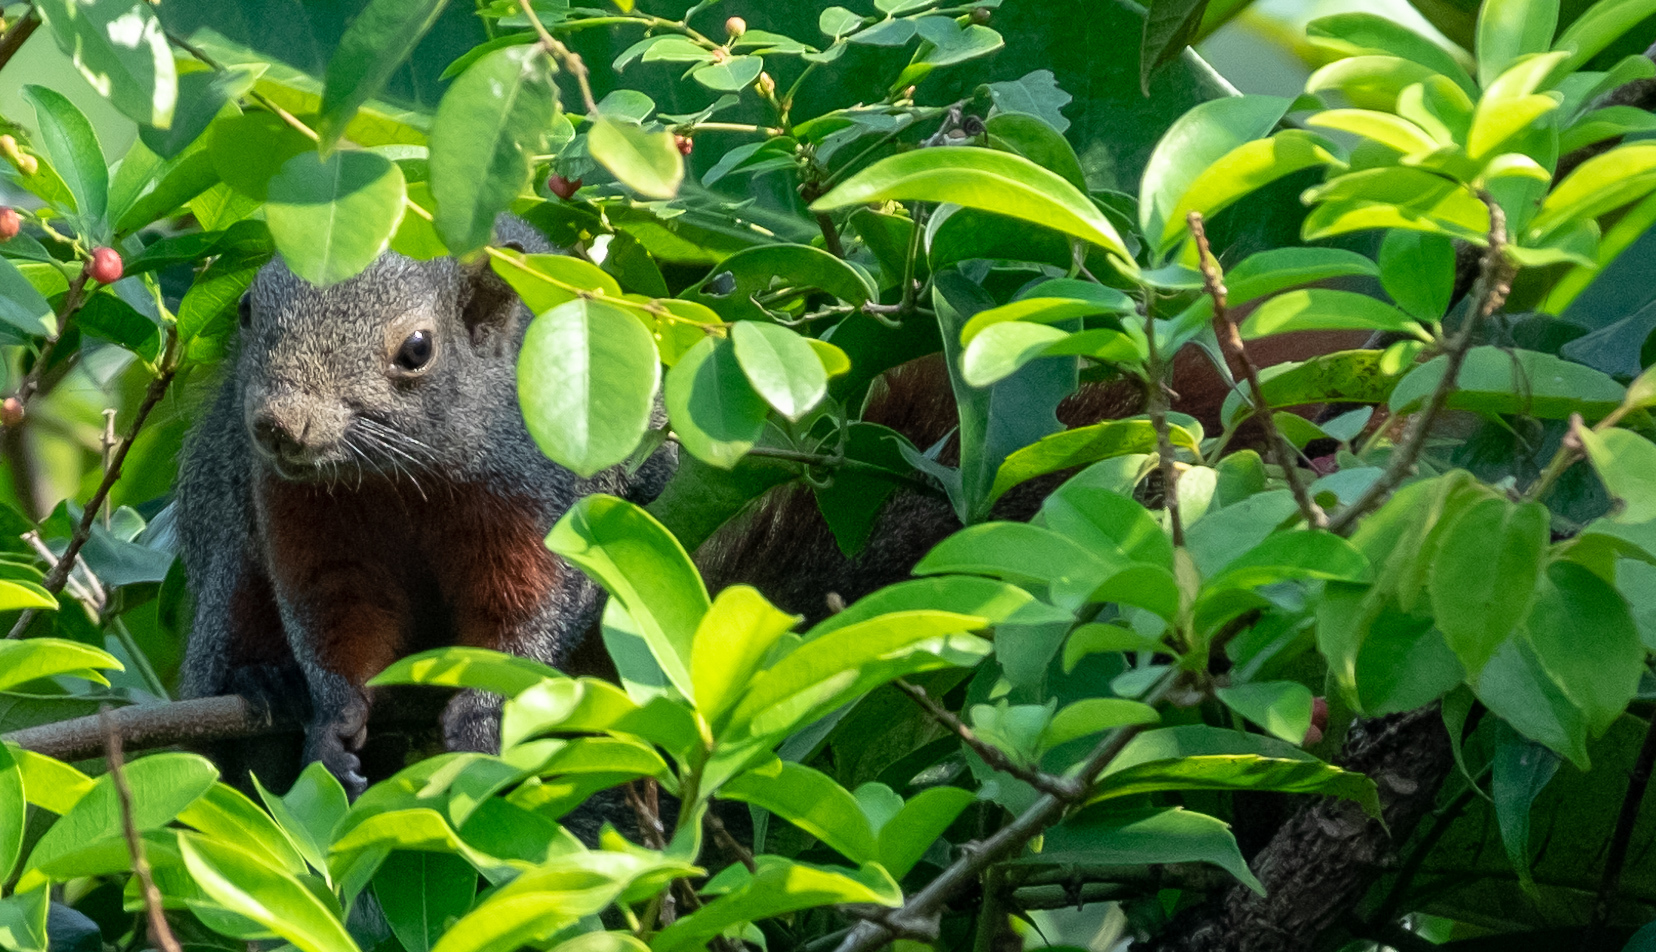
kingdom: Animalia
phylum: Chordata
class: Mammalia
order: Rodentia
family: Sciuridae
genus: Callosciurus
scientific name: Callosciurus erythraeus
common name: Pallas's squirrel
